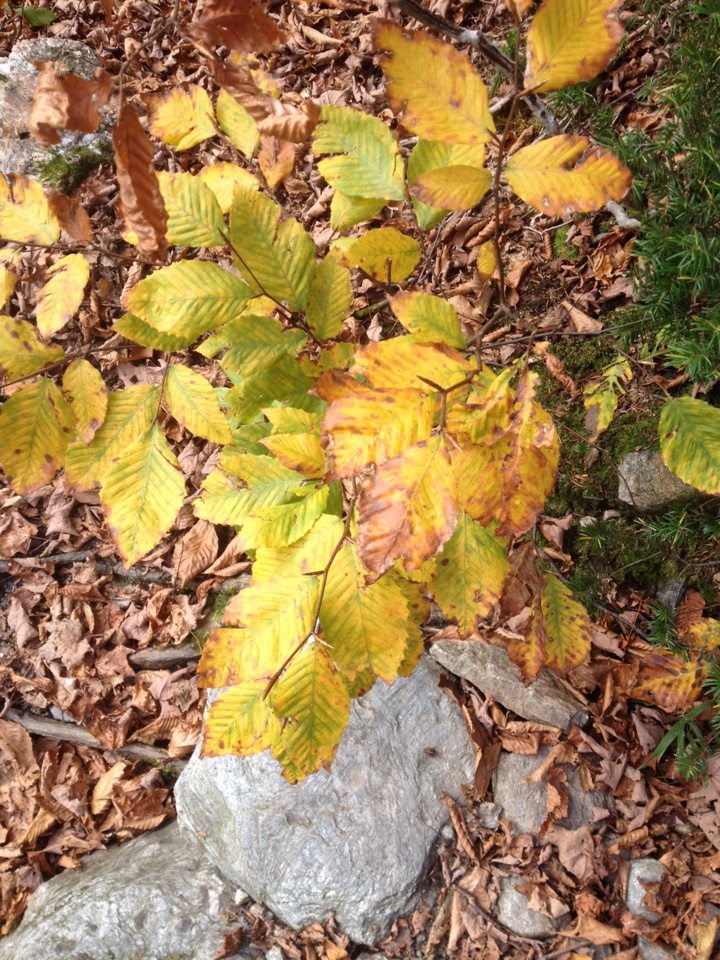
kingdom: Plantae
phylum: Tracheophyta
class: Magnoliopsida
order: Fagales
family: Fagaceae
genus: Fagus
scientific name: Fagus grandifolia
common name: American beech
